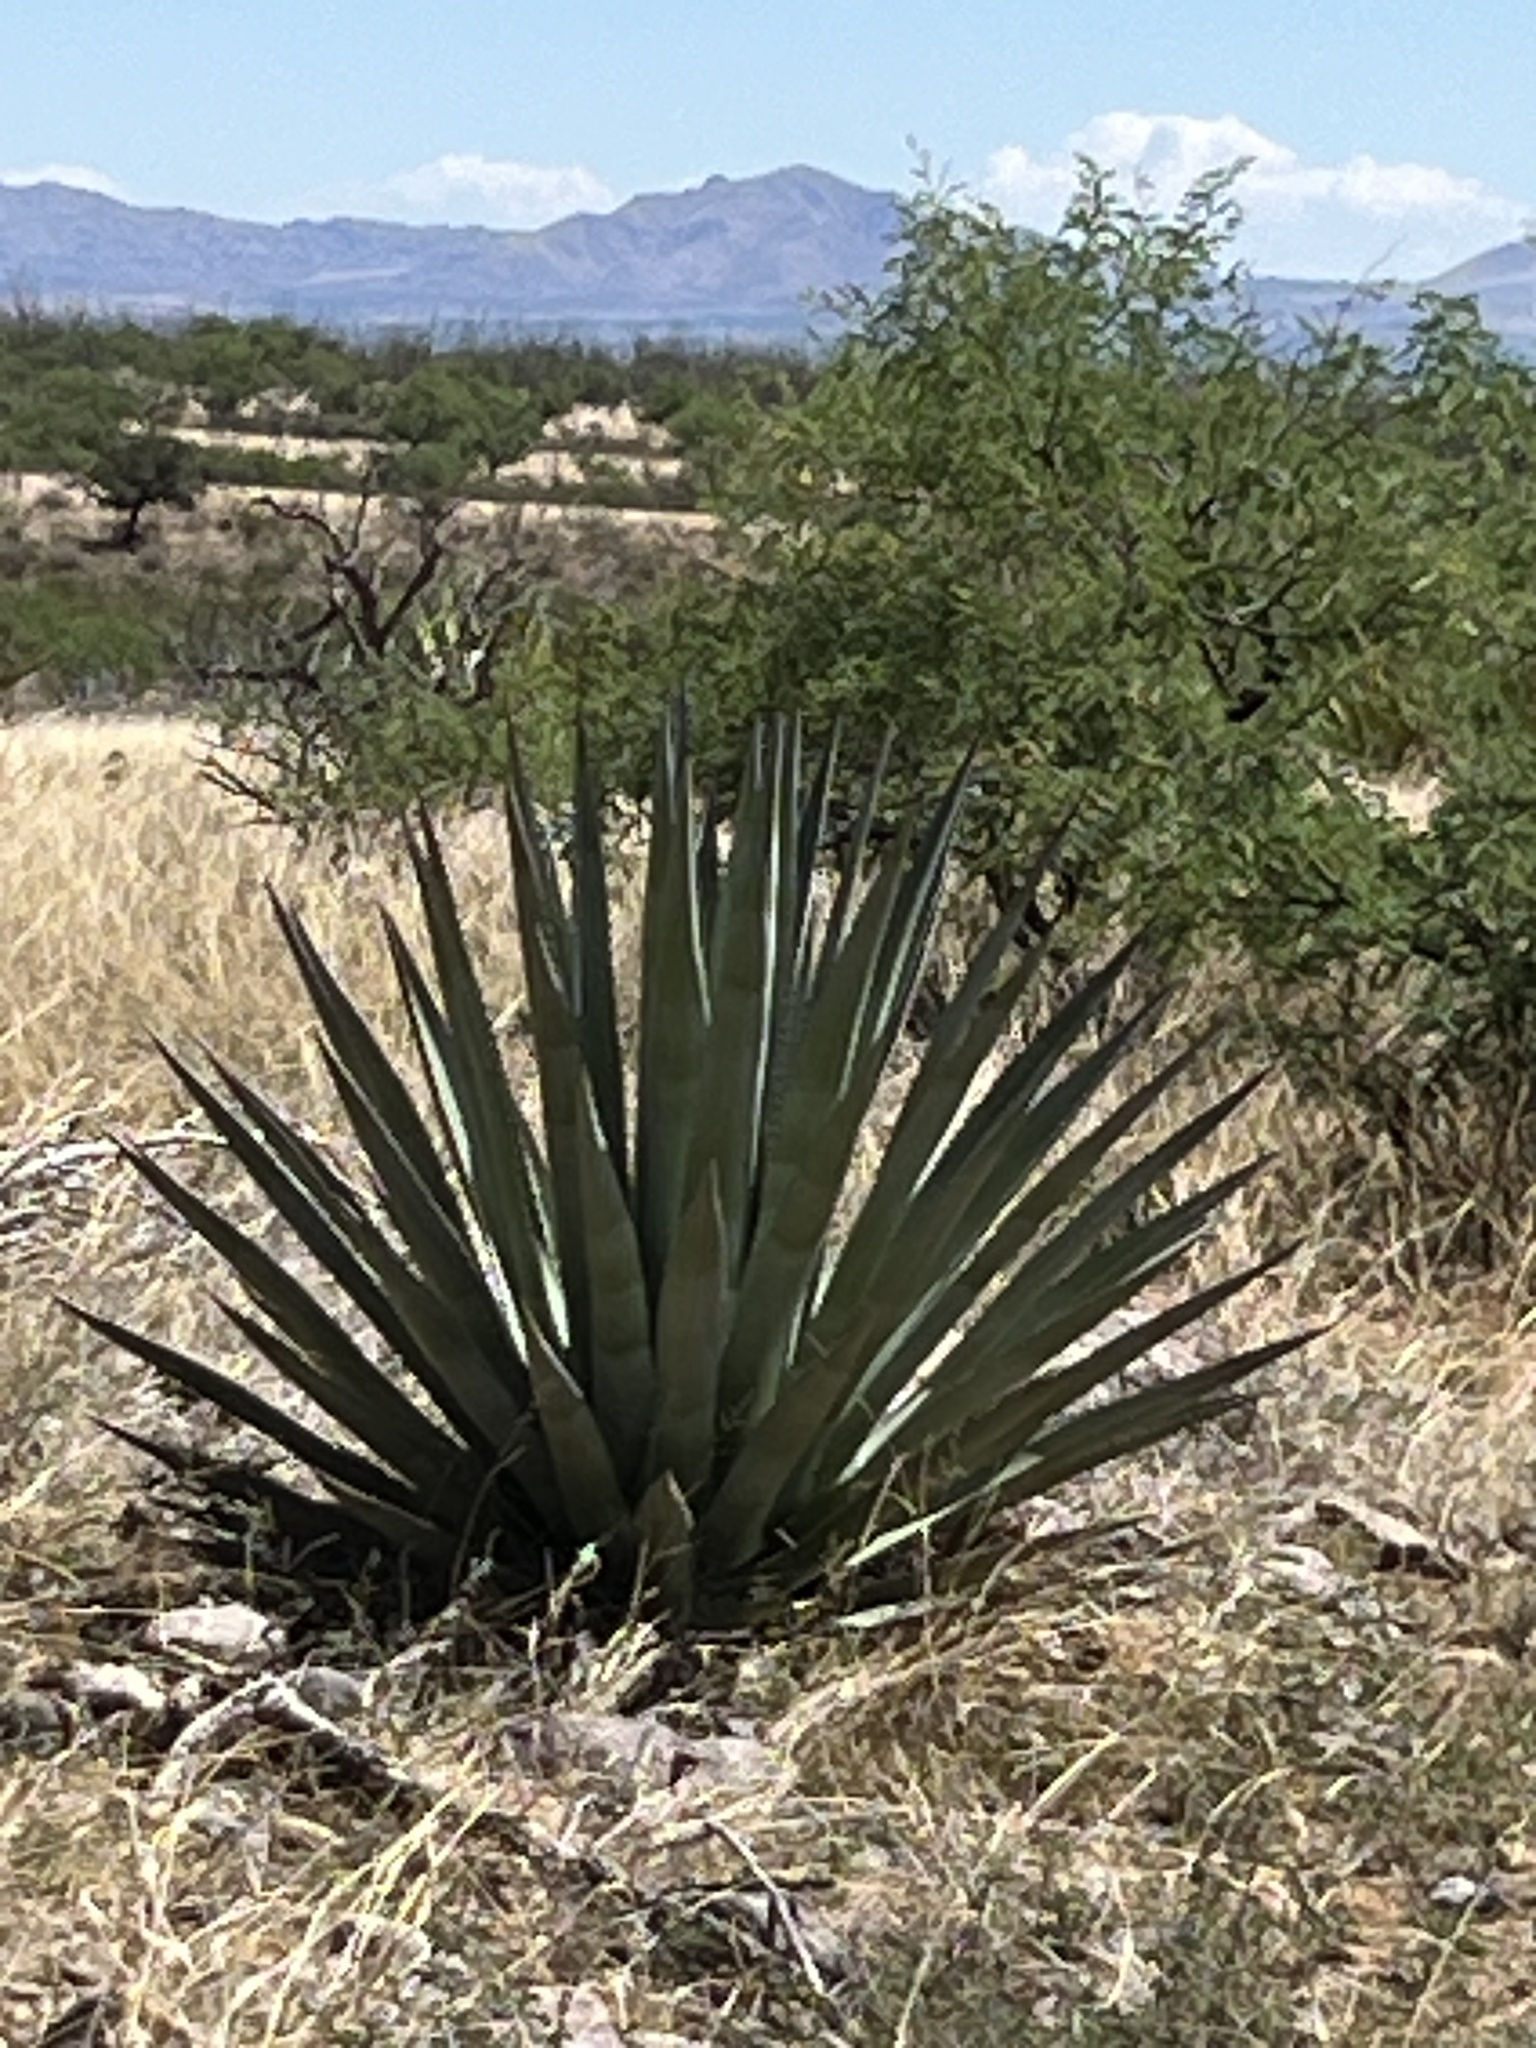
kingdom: Plantae
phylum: Tracheophyta
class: Liliopsida
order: Asparagales
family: Asparagaceae
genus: Agave
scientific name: Agave palmeri
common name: Palmer agave
